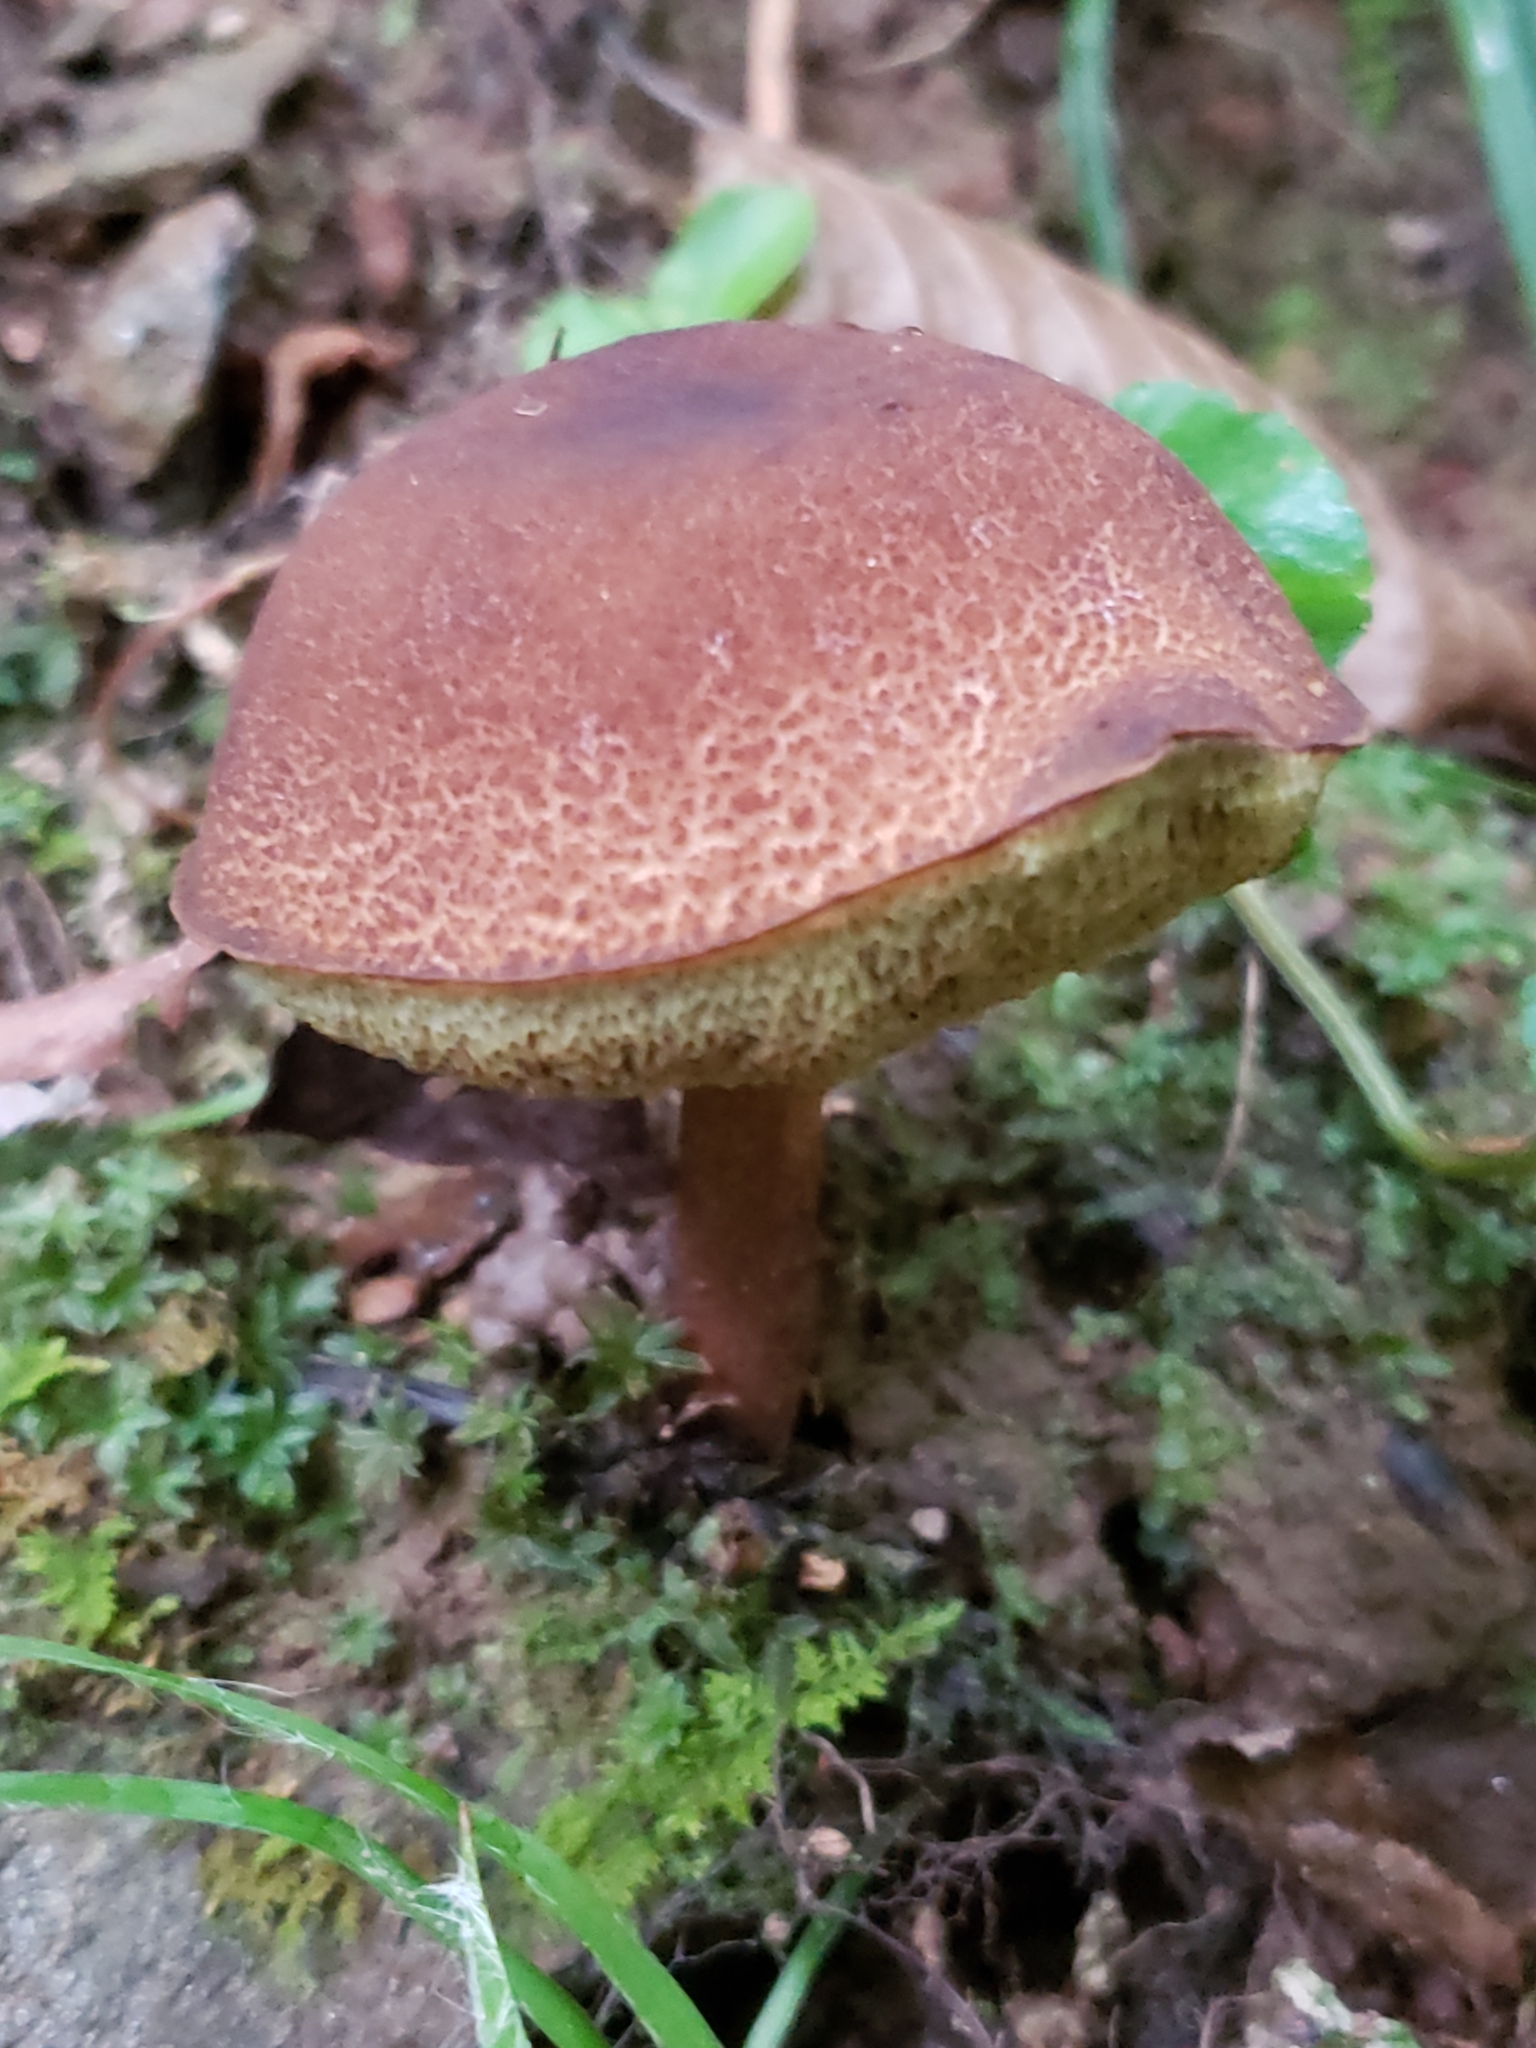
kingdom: Fungi
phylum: Basidiomycota
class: Agaricomycetes
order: Boletales
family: Boletaceae
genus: Boletellus
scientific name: Boletellus chrysenteroides
